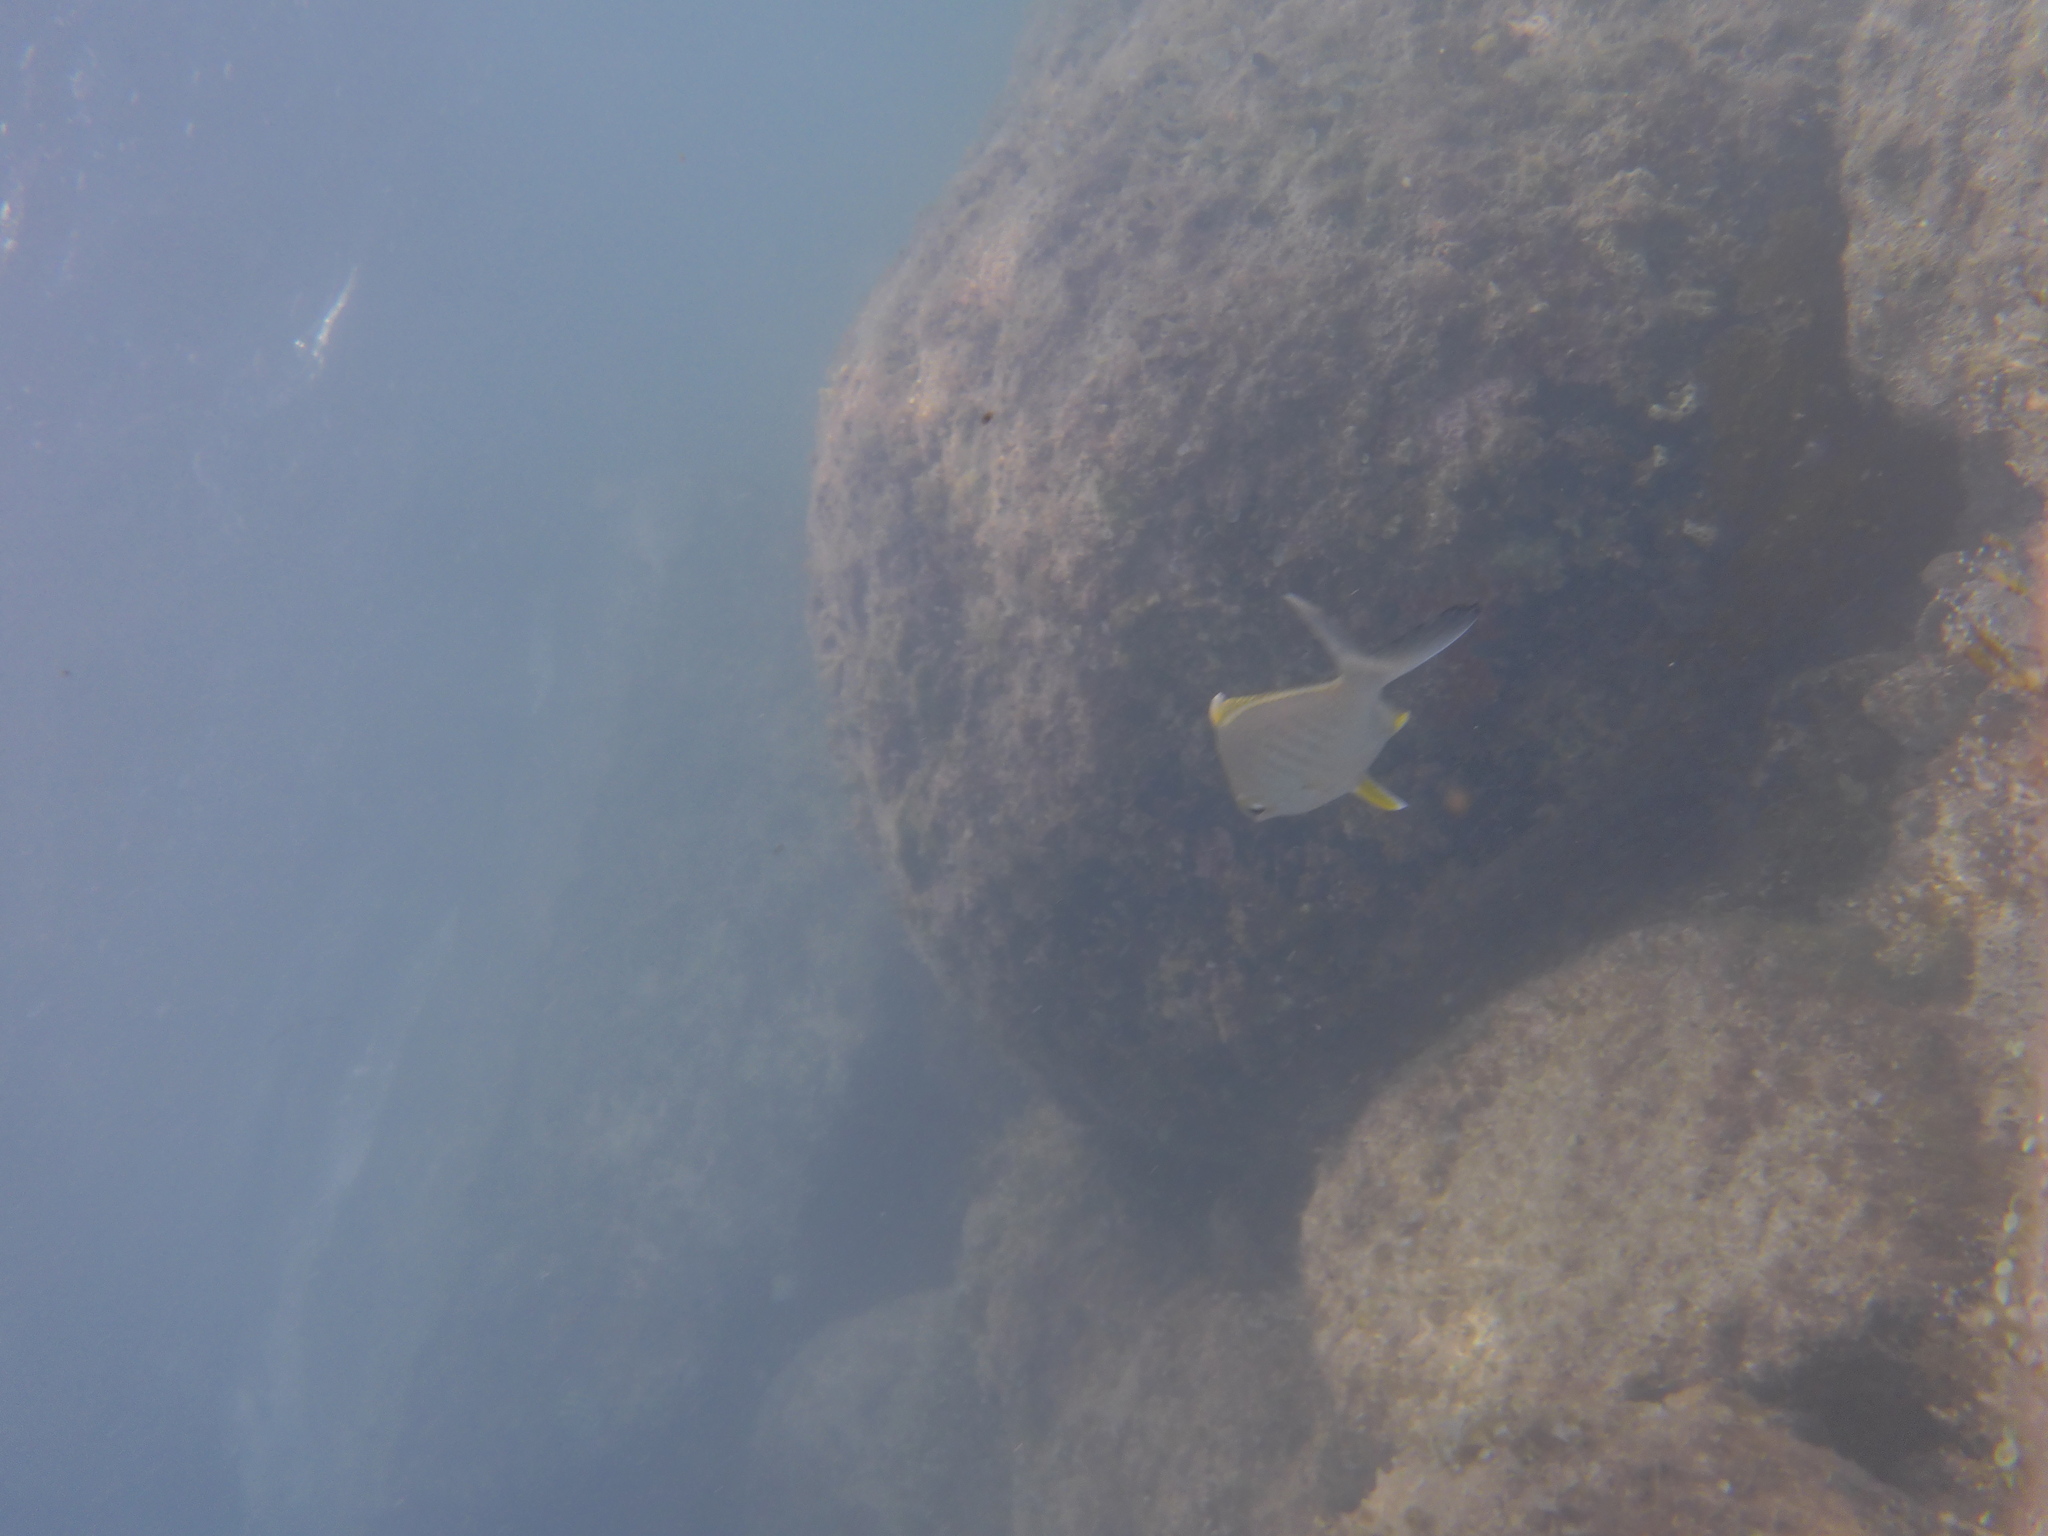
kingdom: Animalia
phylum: Chordata
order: Perciformes
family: Gerreidae
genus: Gerres
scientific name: Gerres cinereus
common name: Hedow
